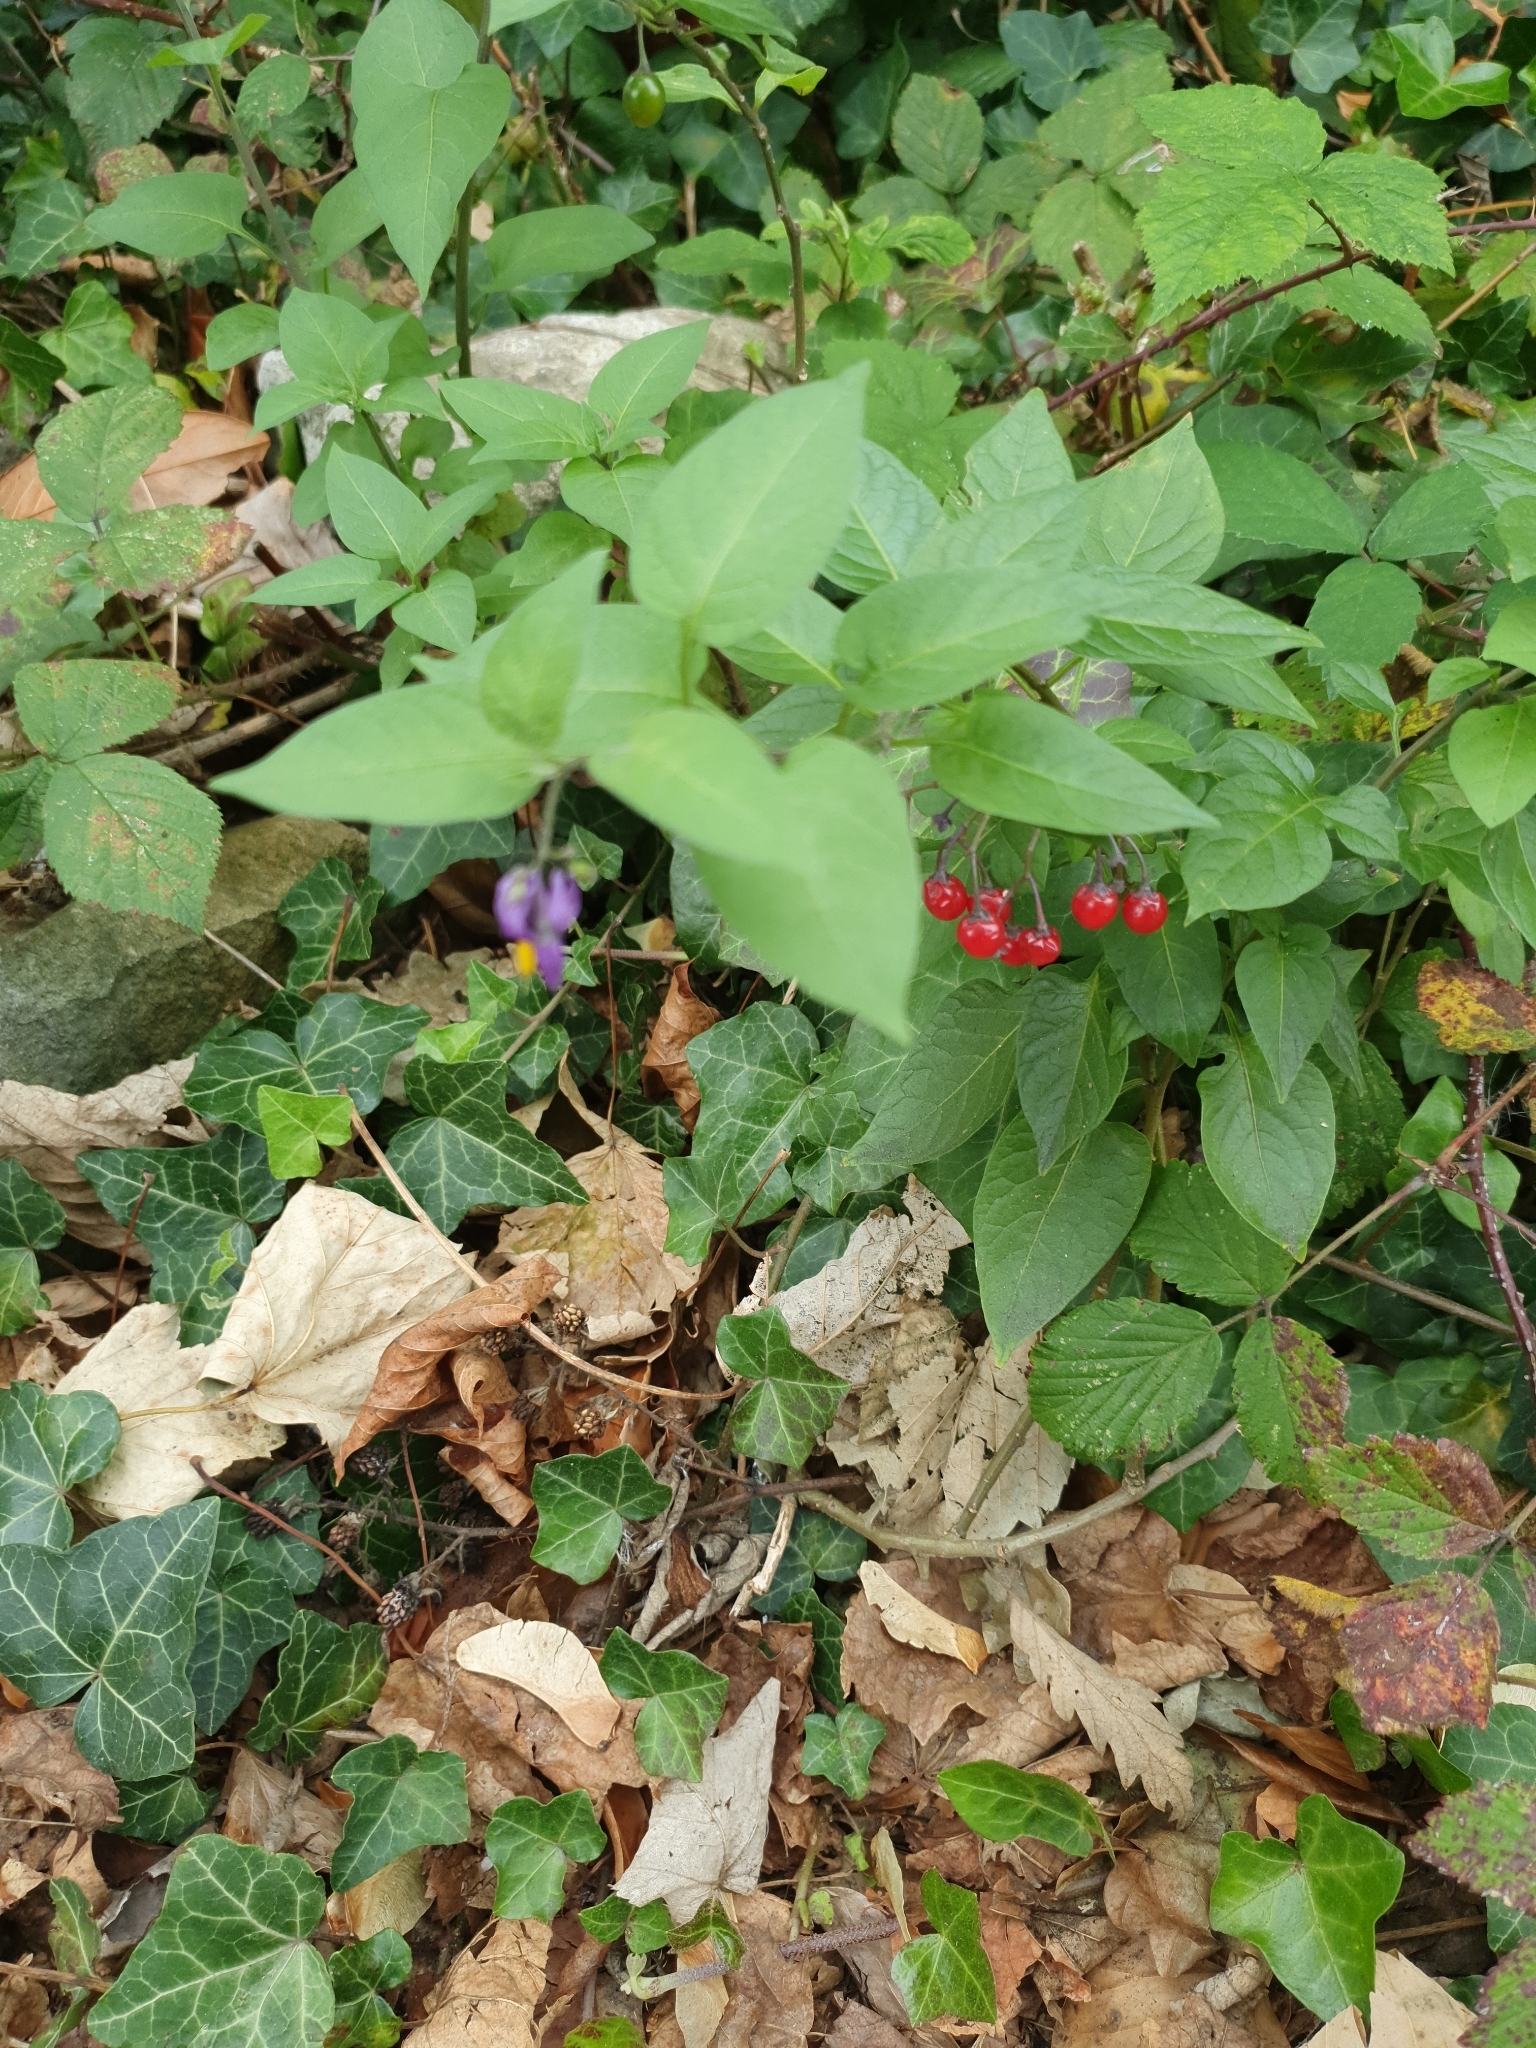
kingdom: Plantae
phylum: Tracheophyta
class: Magnoliopsida
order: Solanales
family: Solanaceae
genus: Solanum
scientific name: Solanum dulcamara
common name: Climbing nightshade
